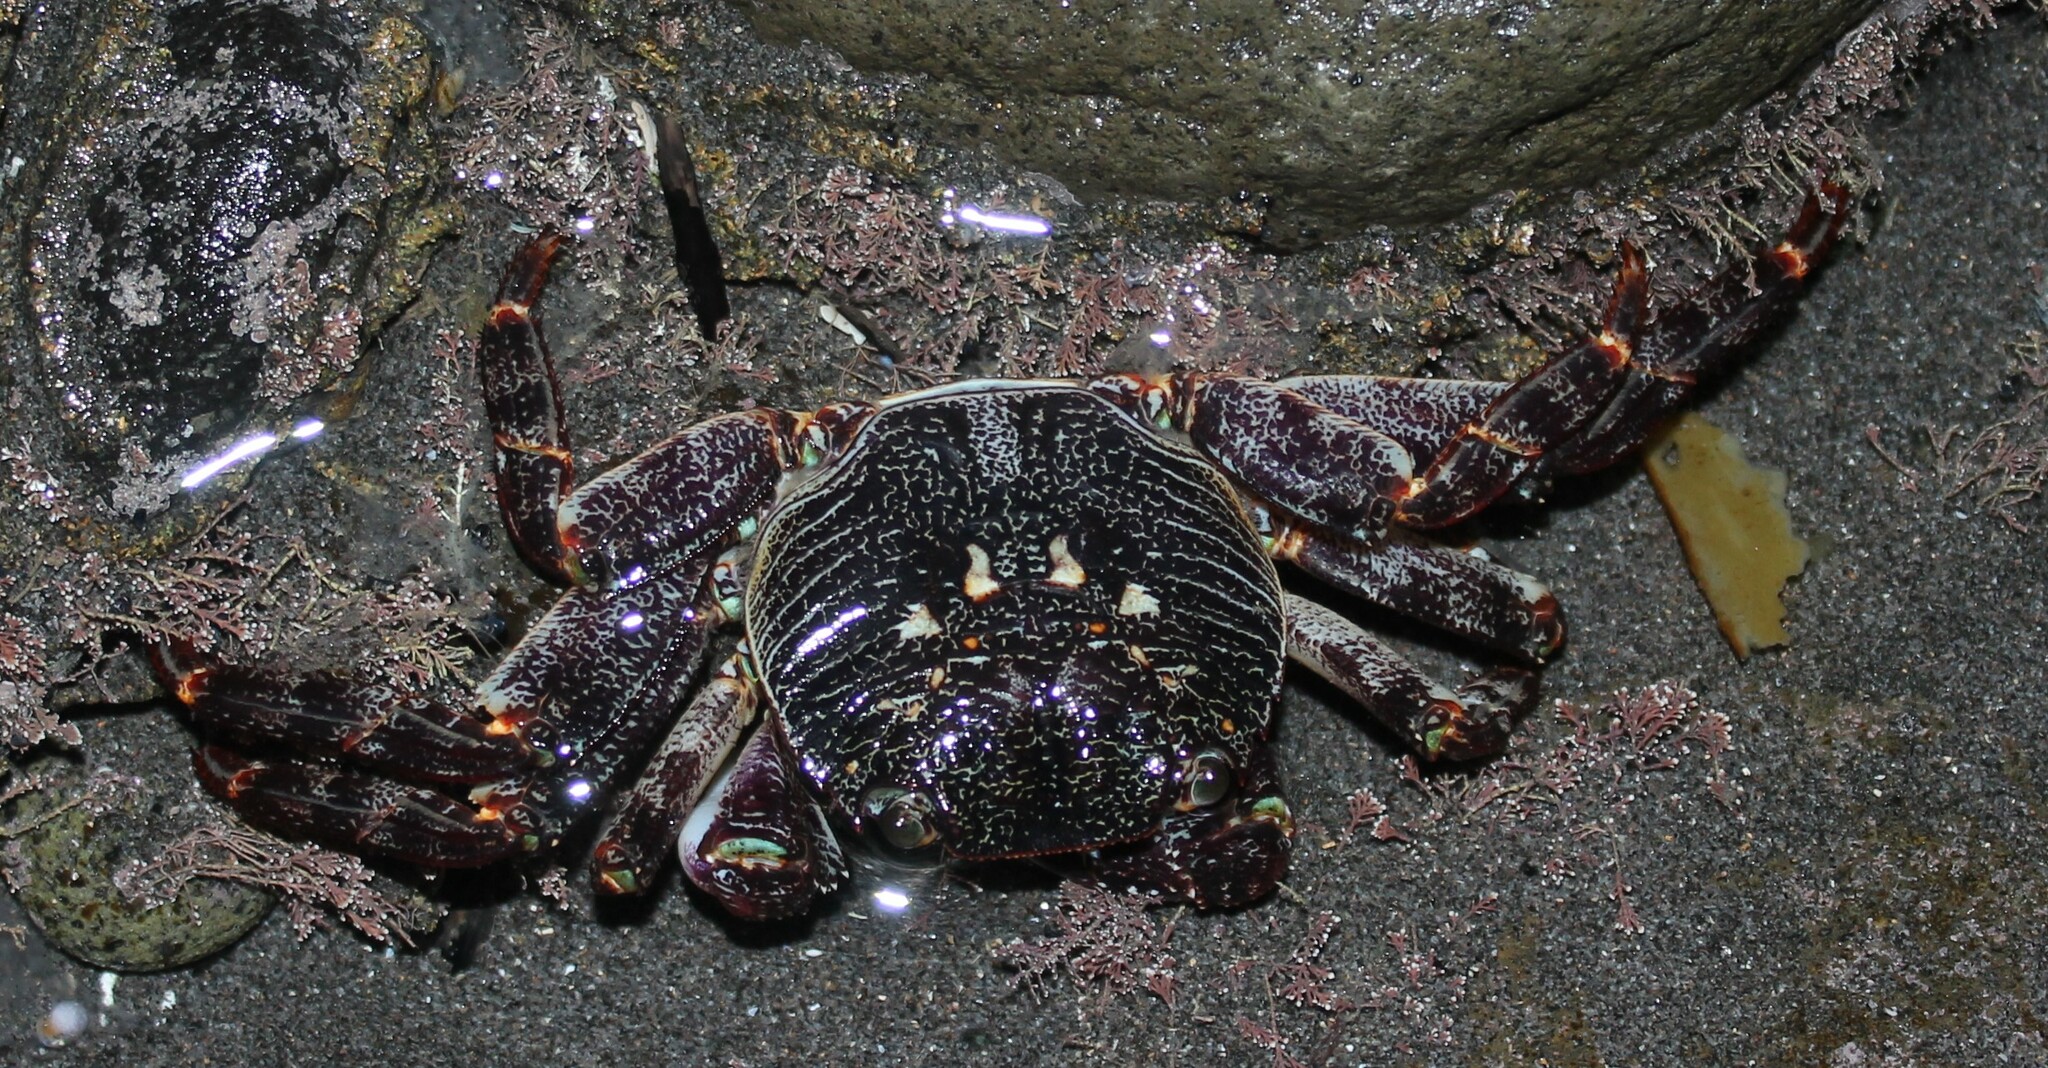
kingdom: Animalia
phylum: Arthropoda
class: Malacostraca
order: Decapoda
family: Grapsidae
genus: Leptograpsus
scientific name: Leptograpsus variegatus
